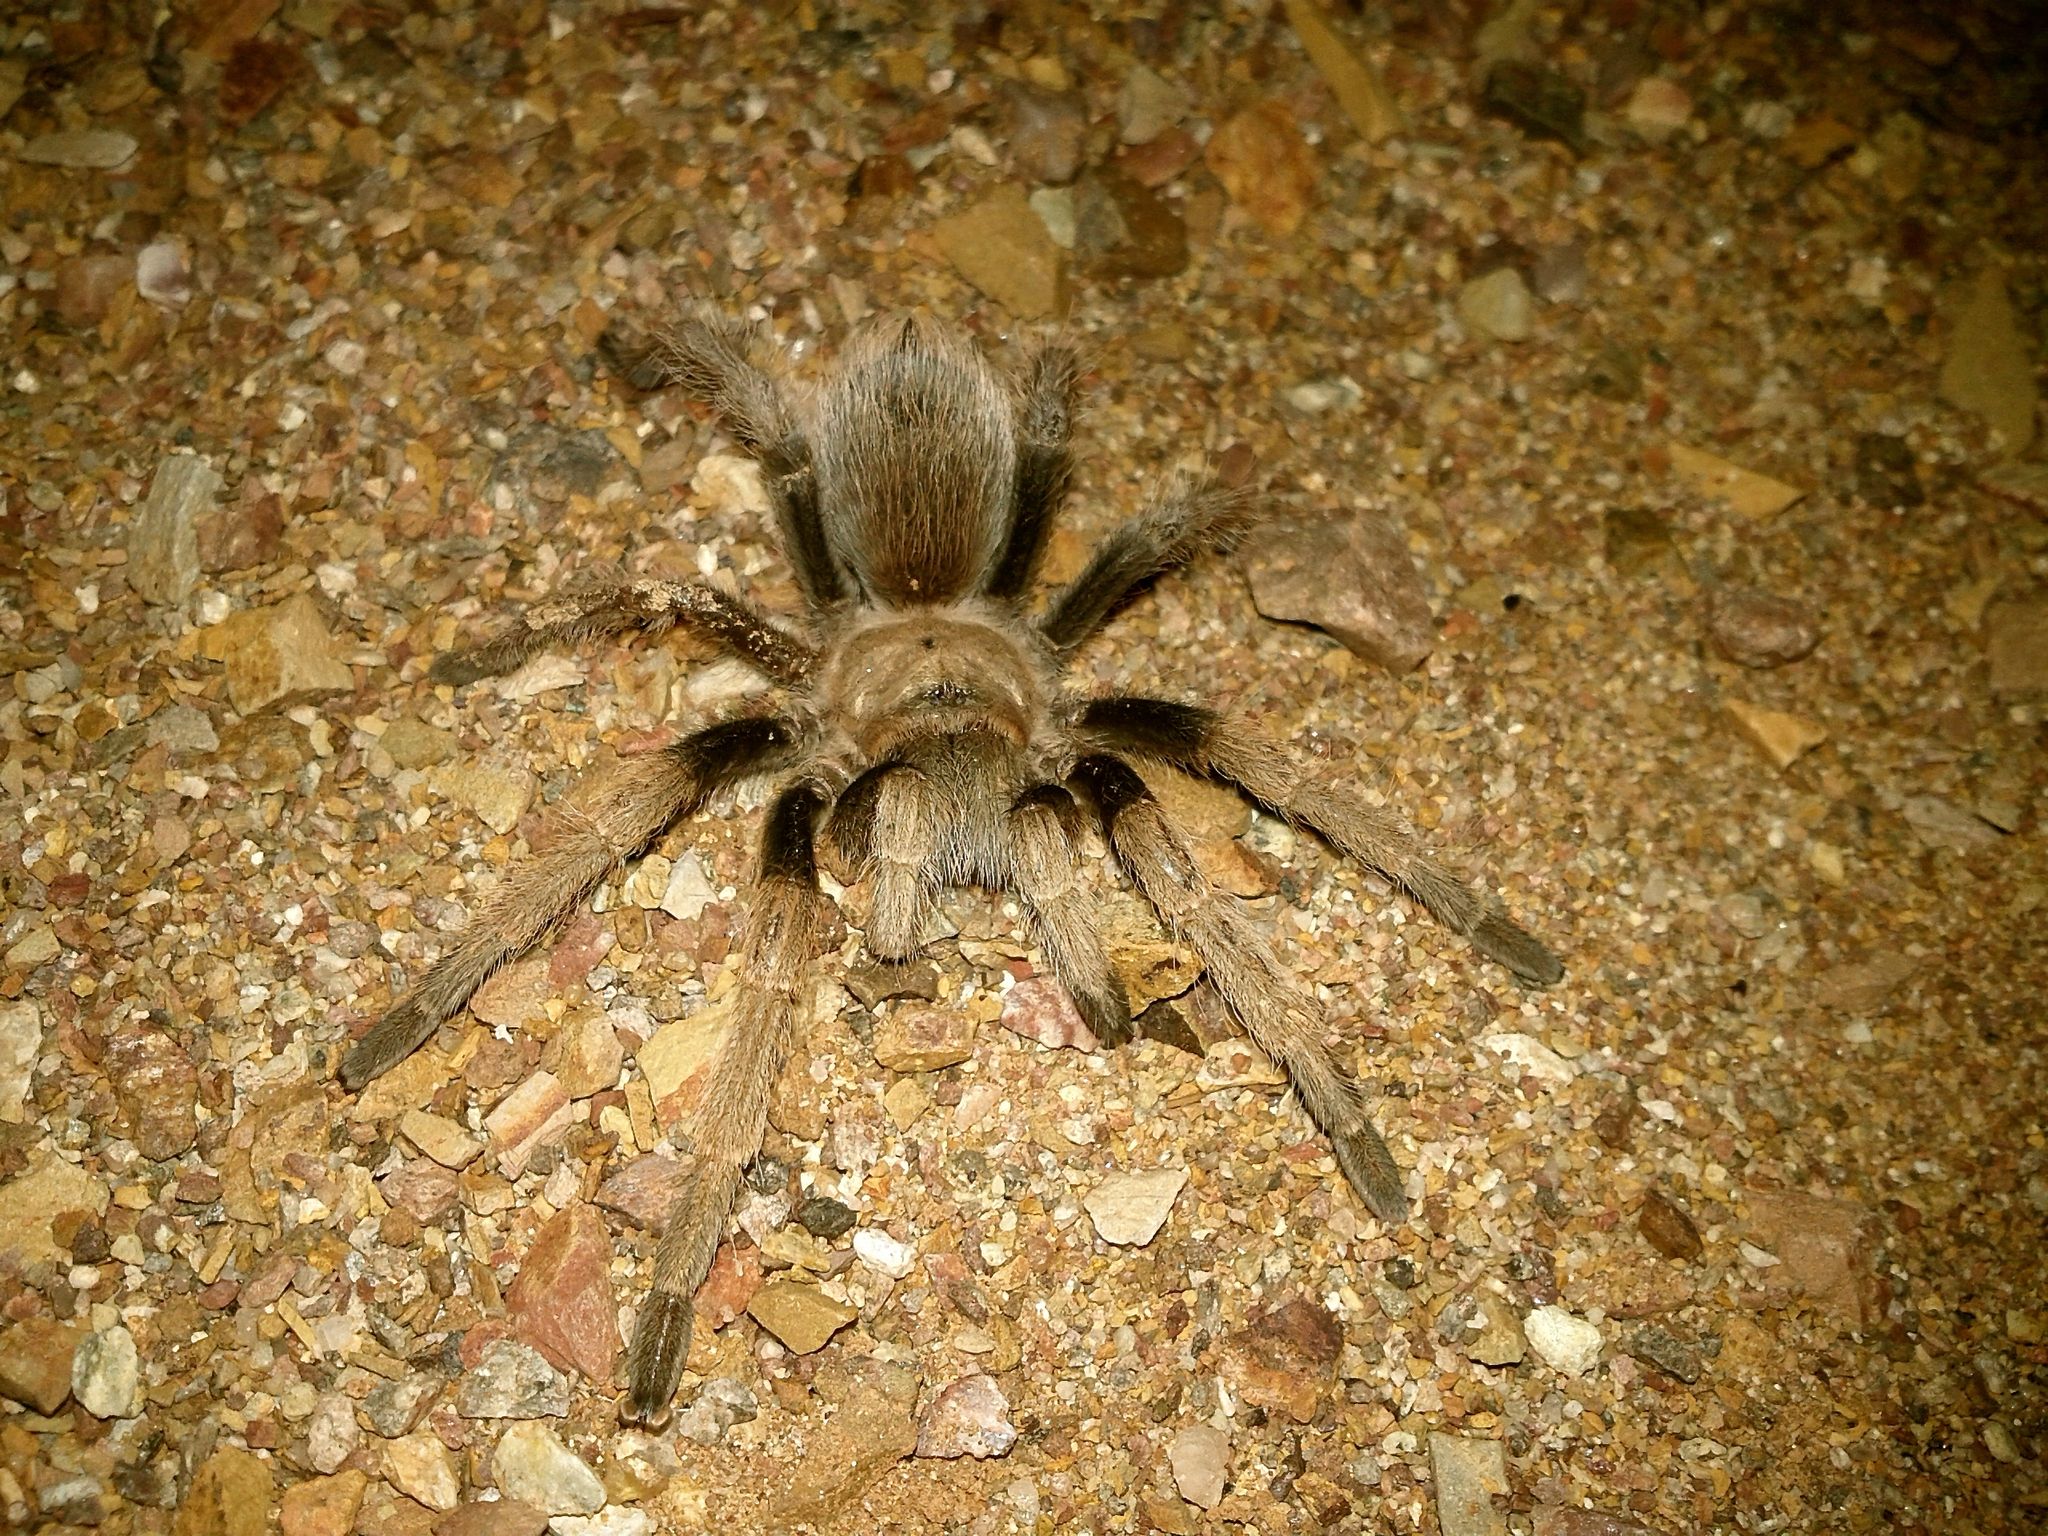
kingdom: Animalia
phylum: Arthropoda
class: Arachnida
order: Araneae
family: Theraphosidae
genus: Aphonopelma
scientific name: Aphonopelma chalcodes
